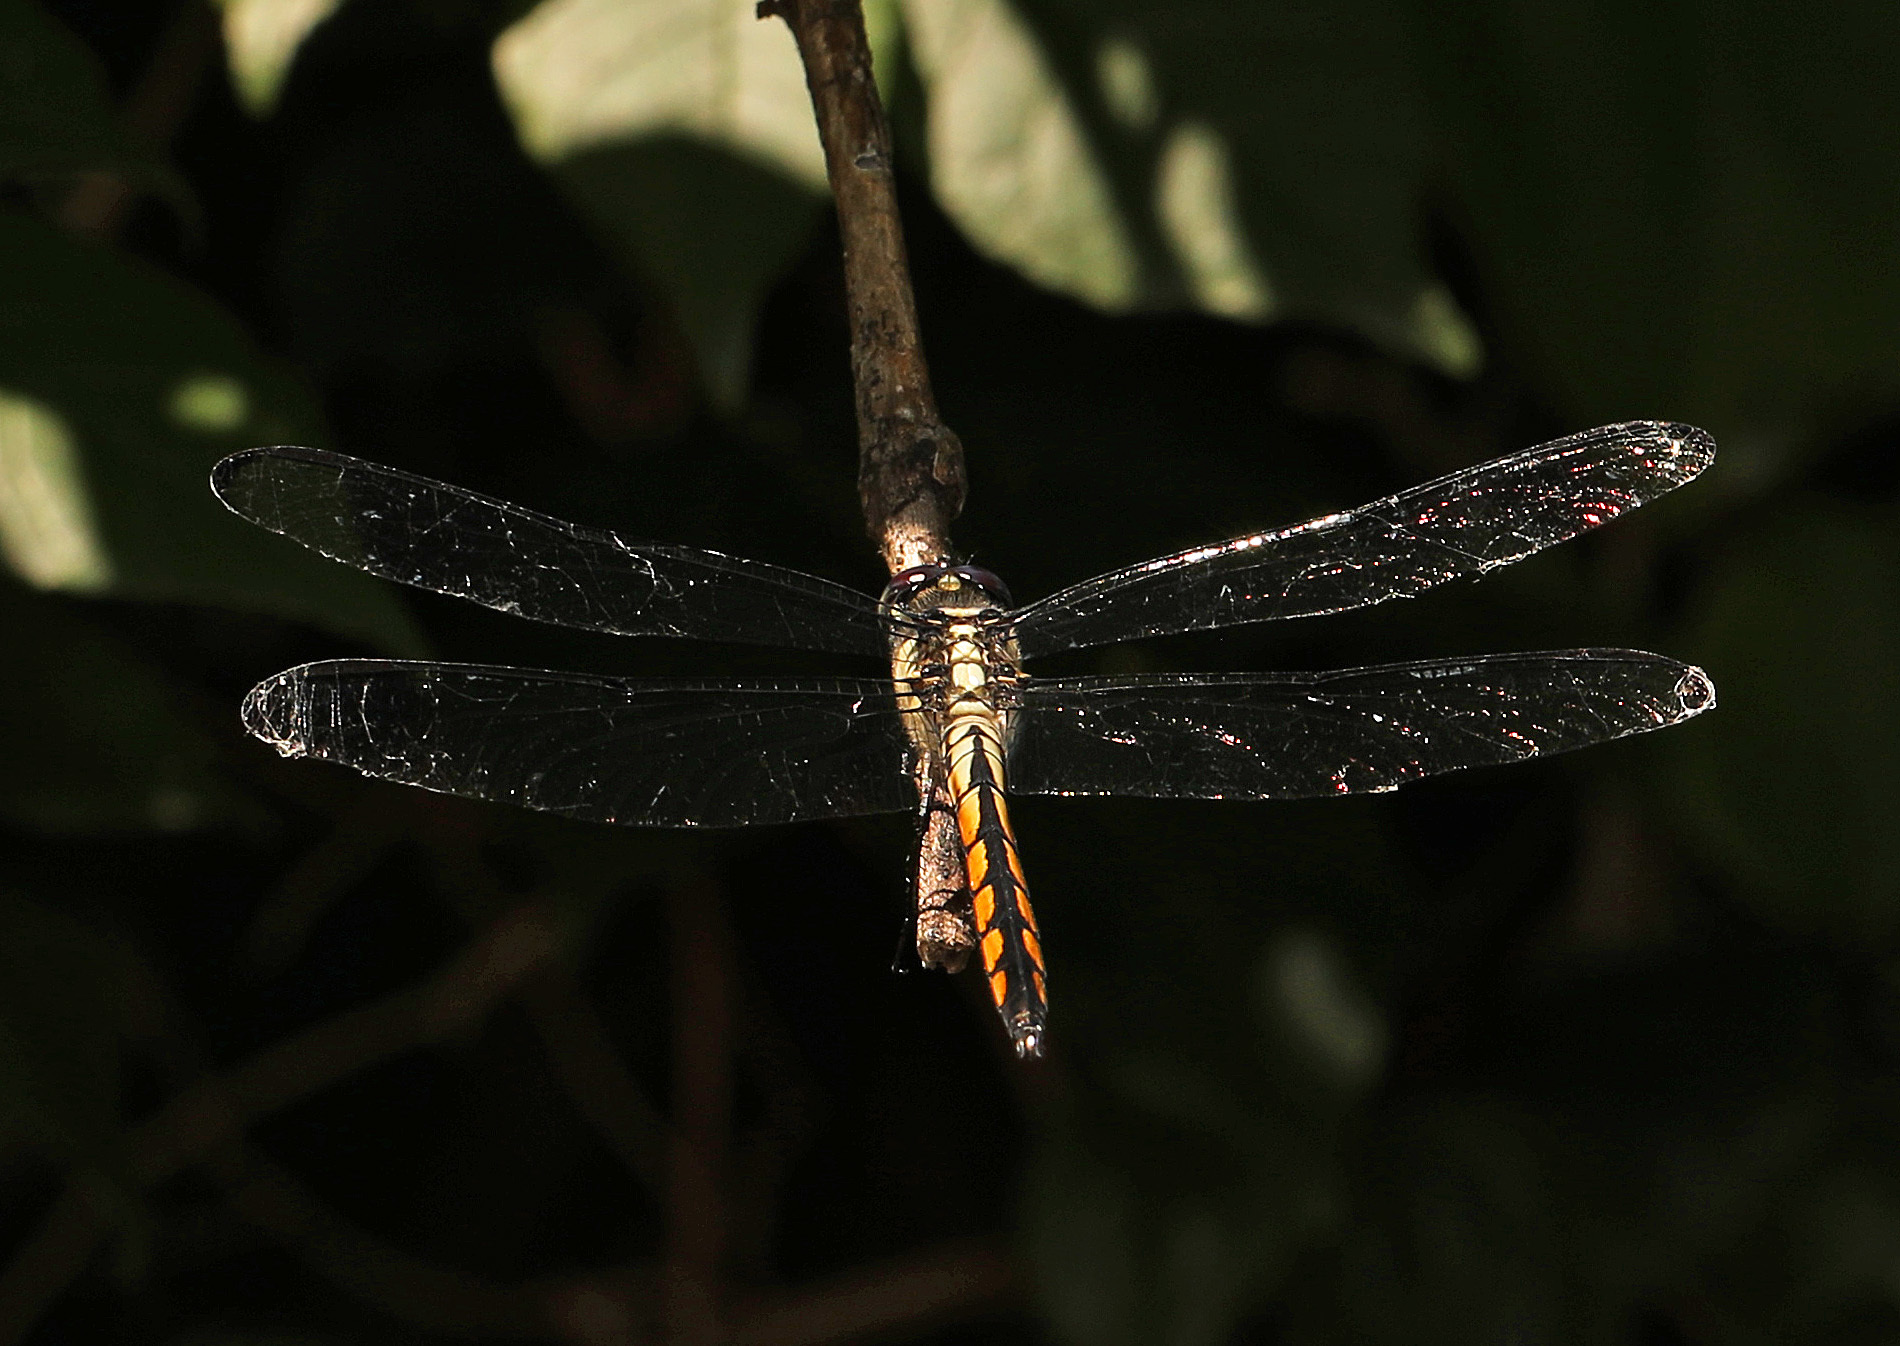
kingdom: Animalia
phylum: Arthropoda
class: Insecta
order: Odonata
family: Libellulidae
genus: Libellula
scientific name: Libellula vibrans
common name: Great blue skimmer
